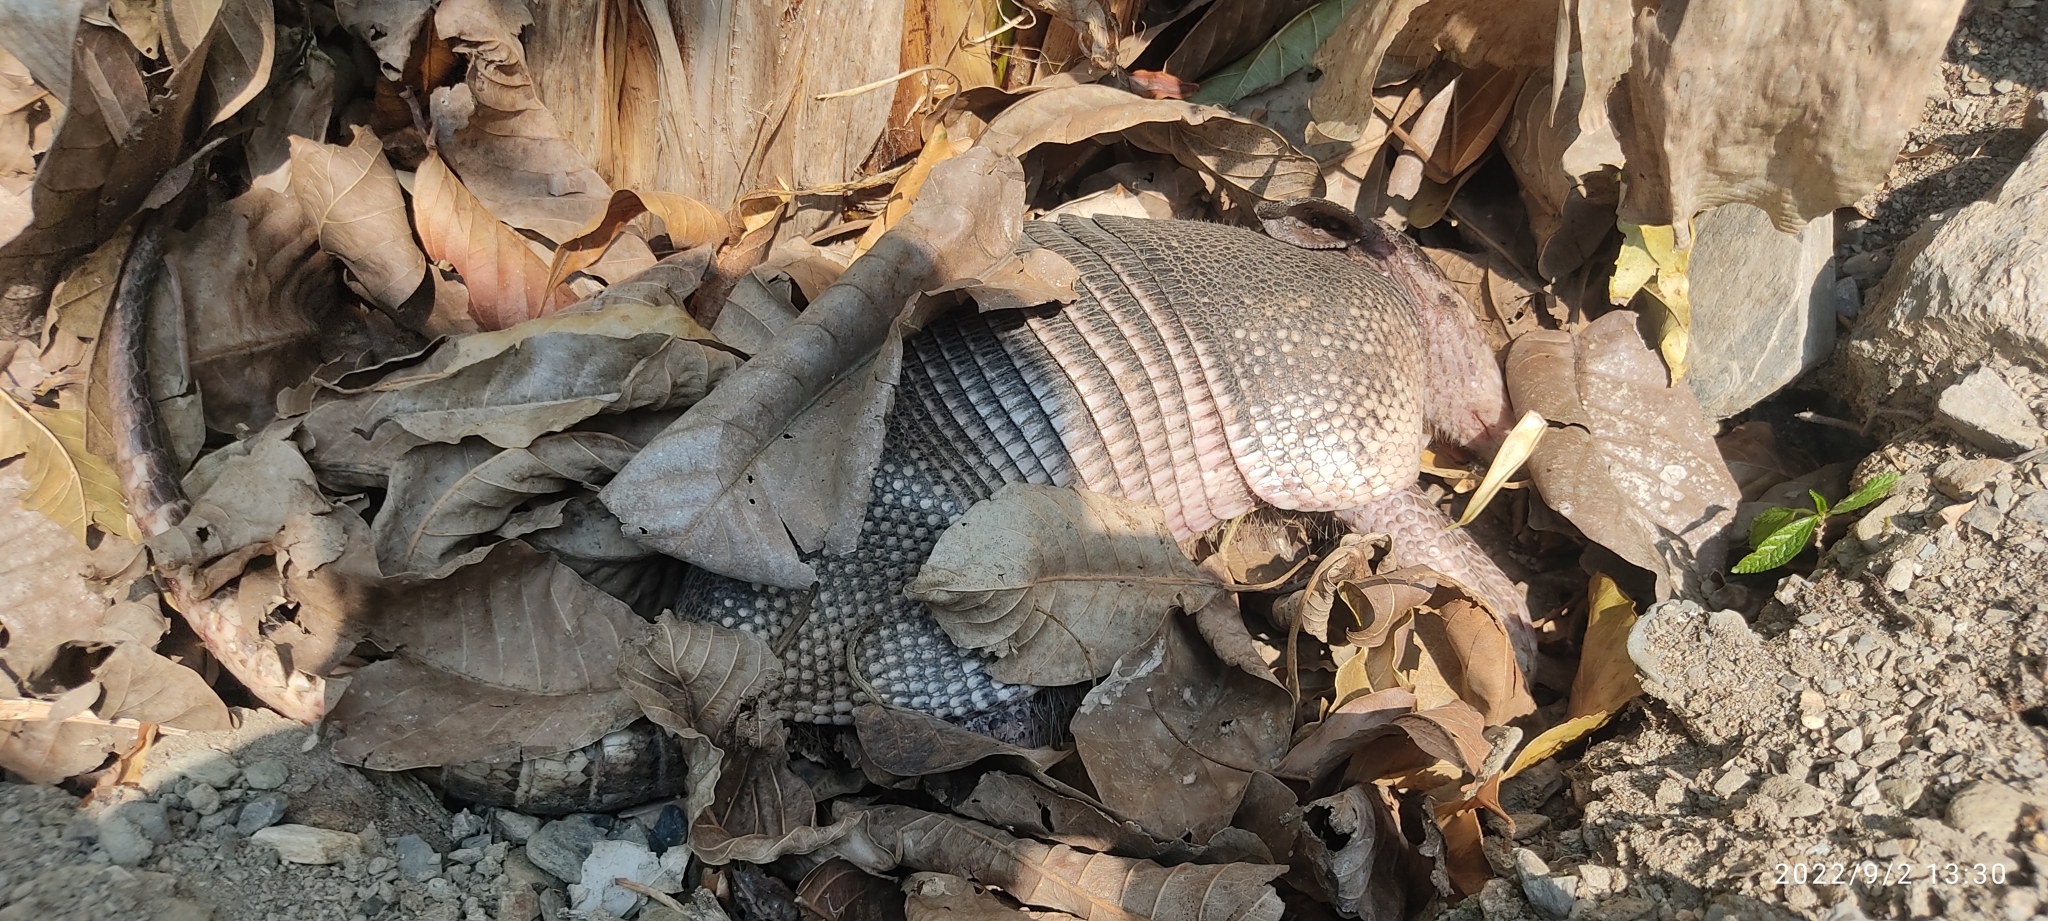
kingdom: Animalia
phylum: Chordata
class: Mammalia
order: Cingulata
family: Dasypodidae
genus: Dasypus
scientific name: Dasypus novemcinctus
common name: Nine-banded armadillo
